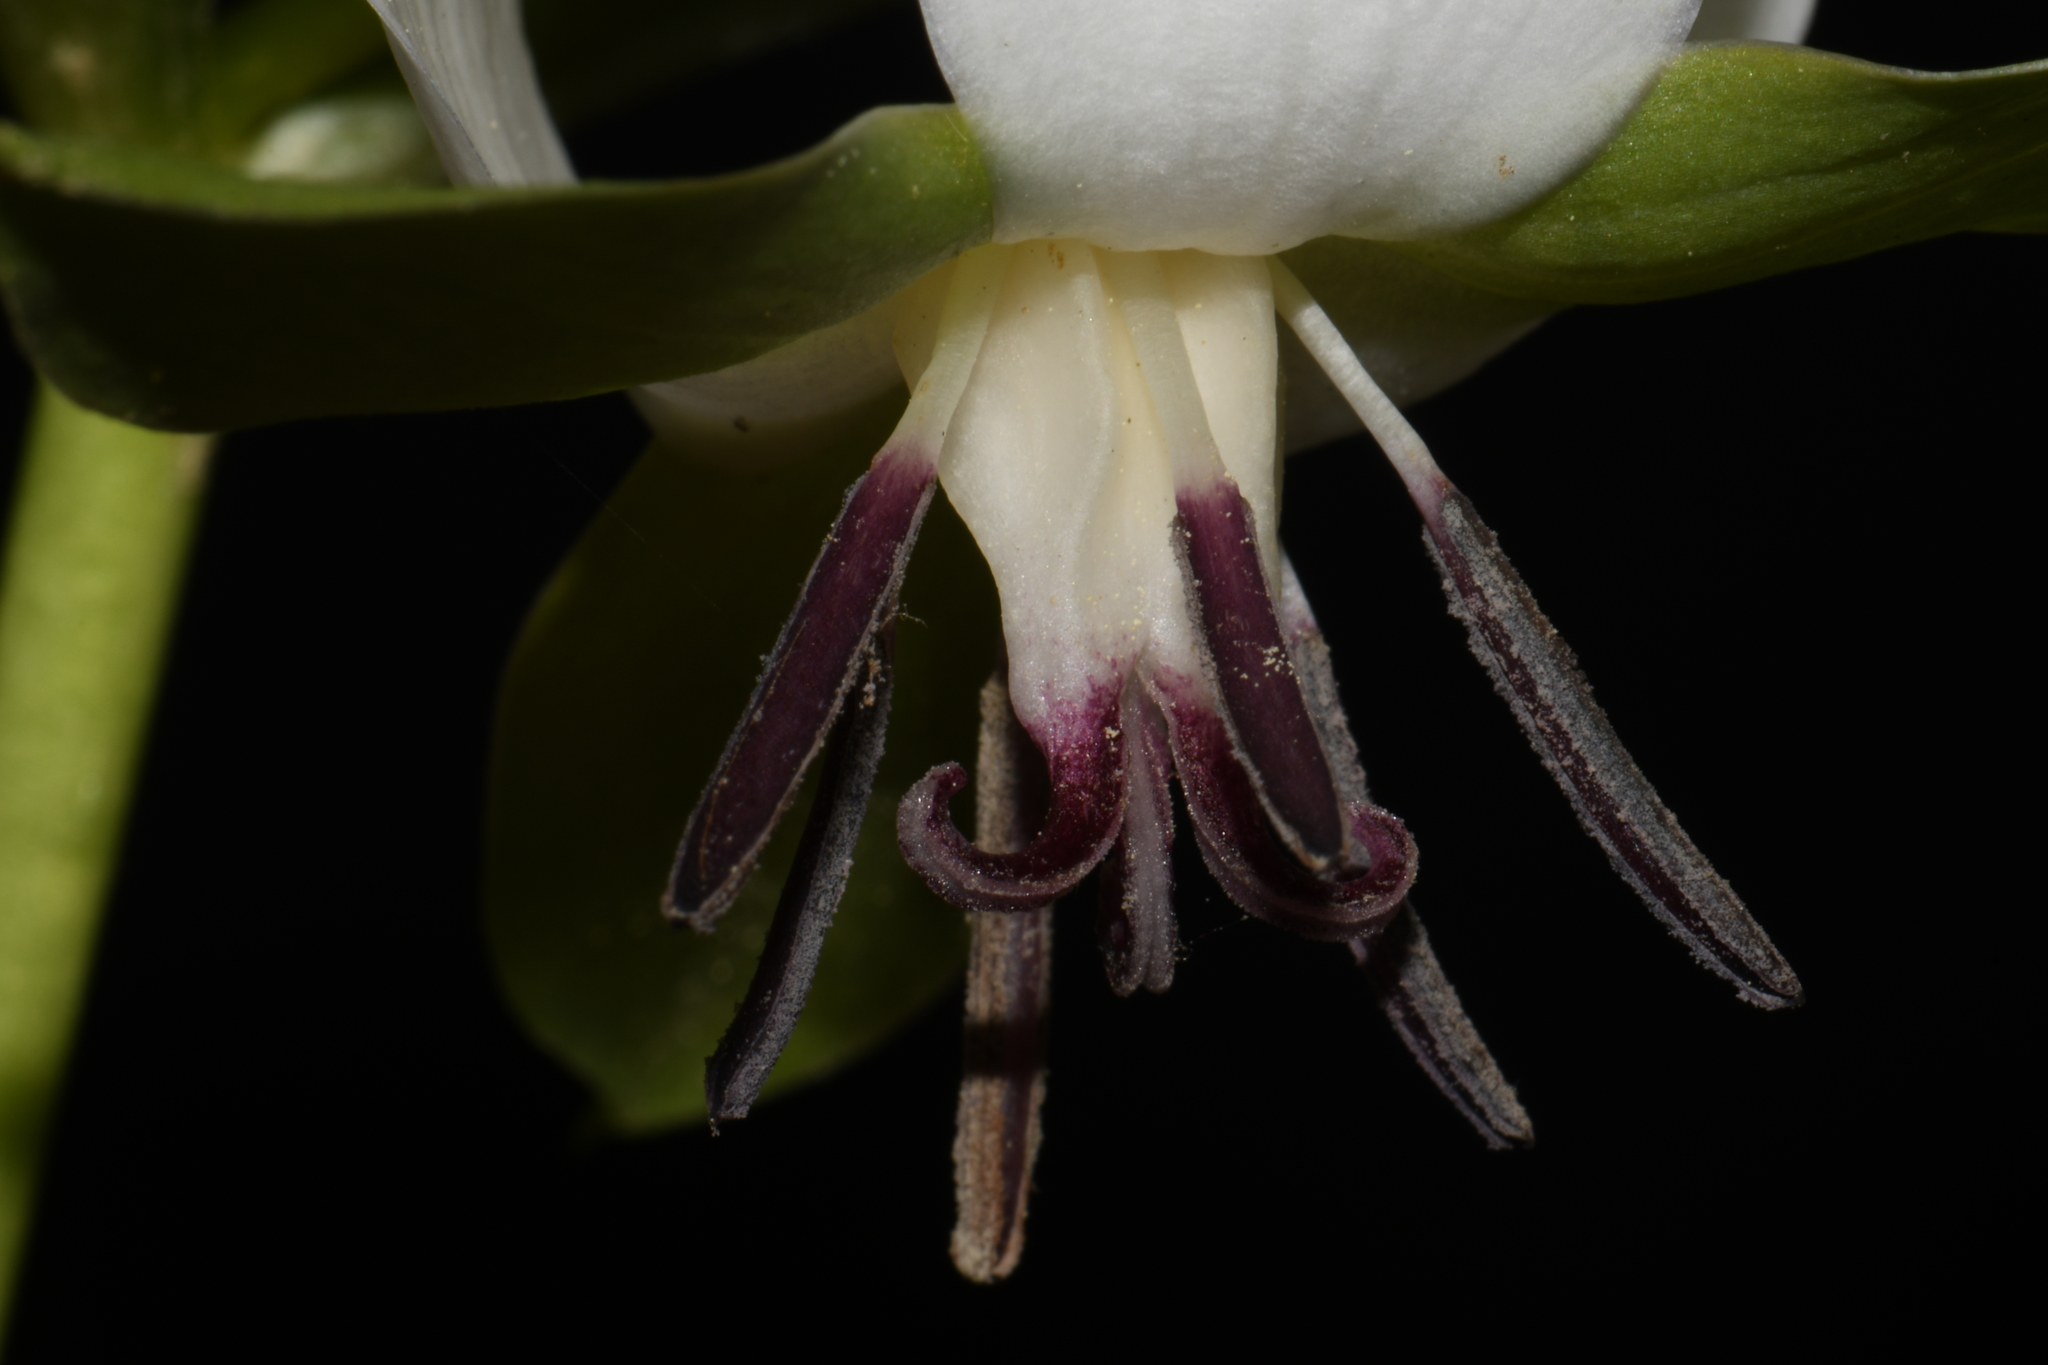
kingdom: Plantae
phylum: Tracheophyta
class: Liliopsida
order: Liliales
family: Melanthiaceae
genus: Trillium
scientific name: Trillium rugelii
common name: Ill-scented trillium
